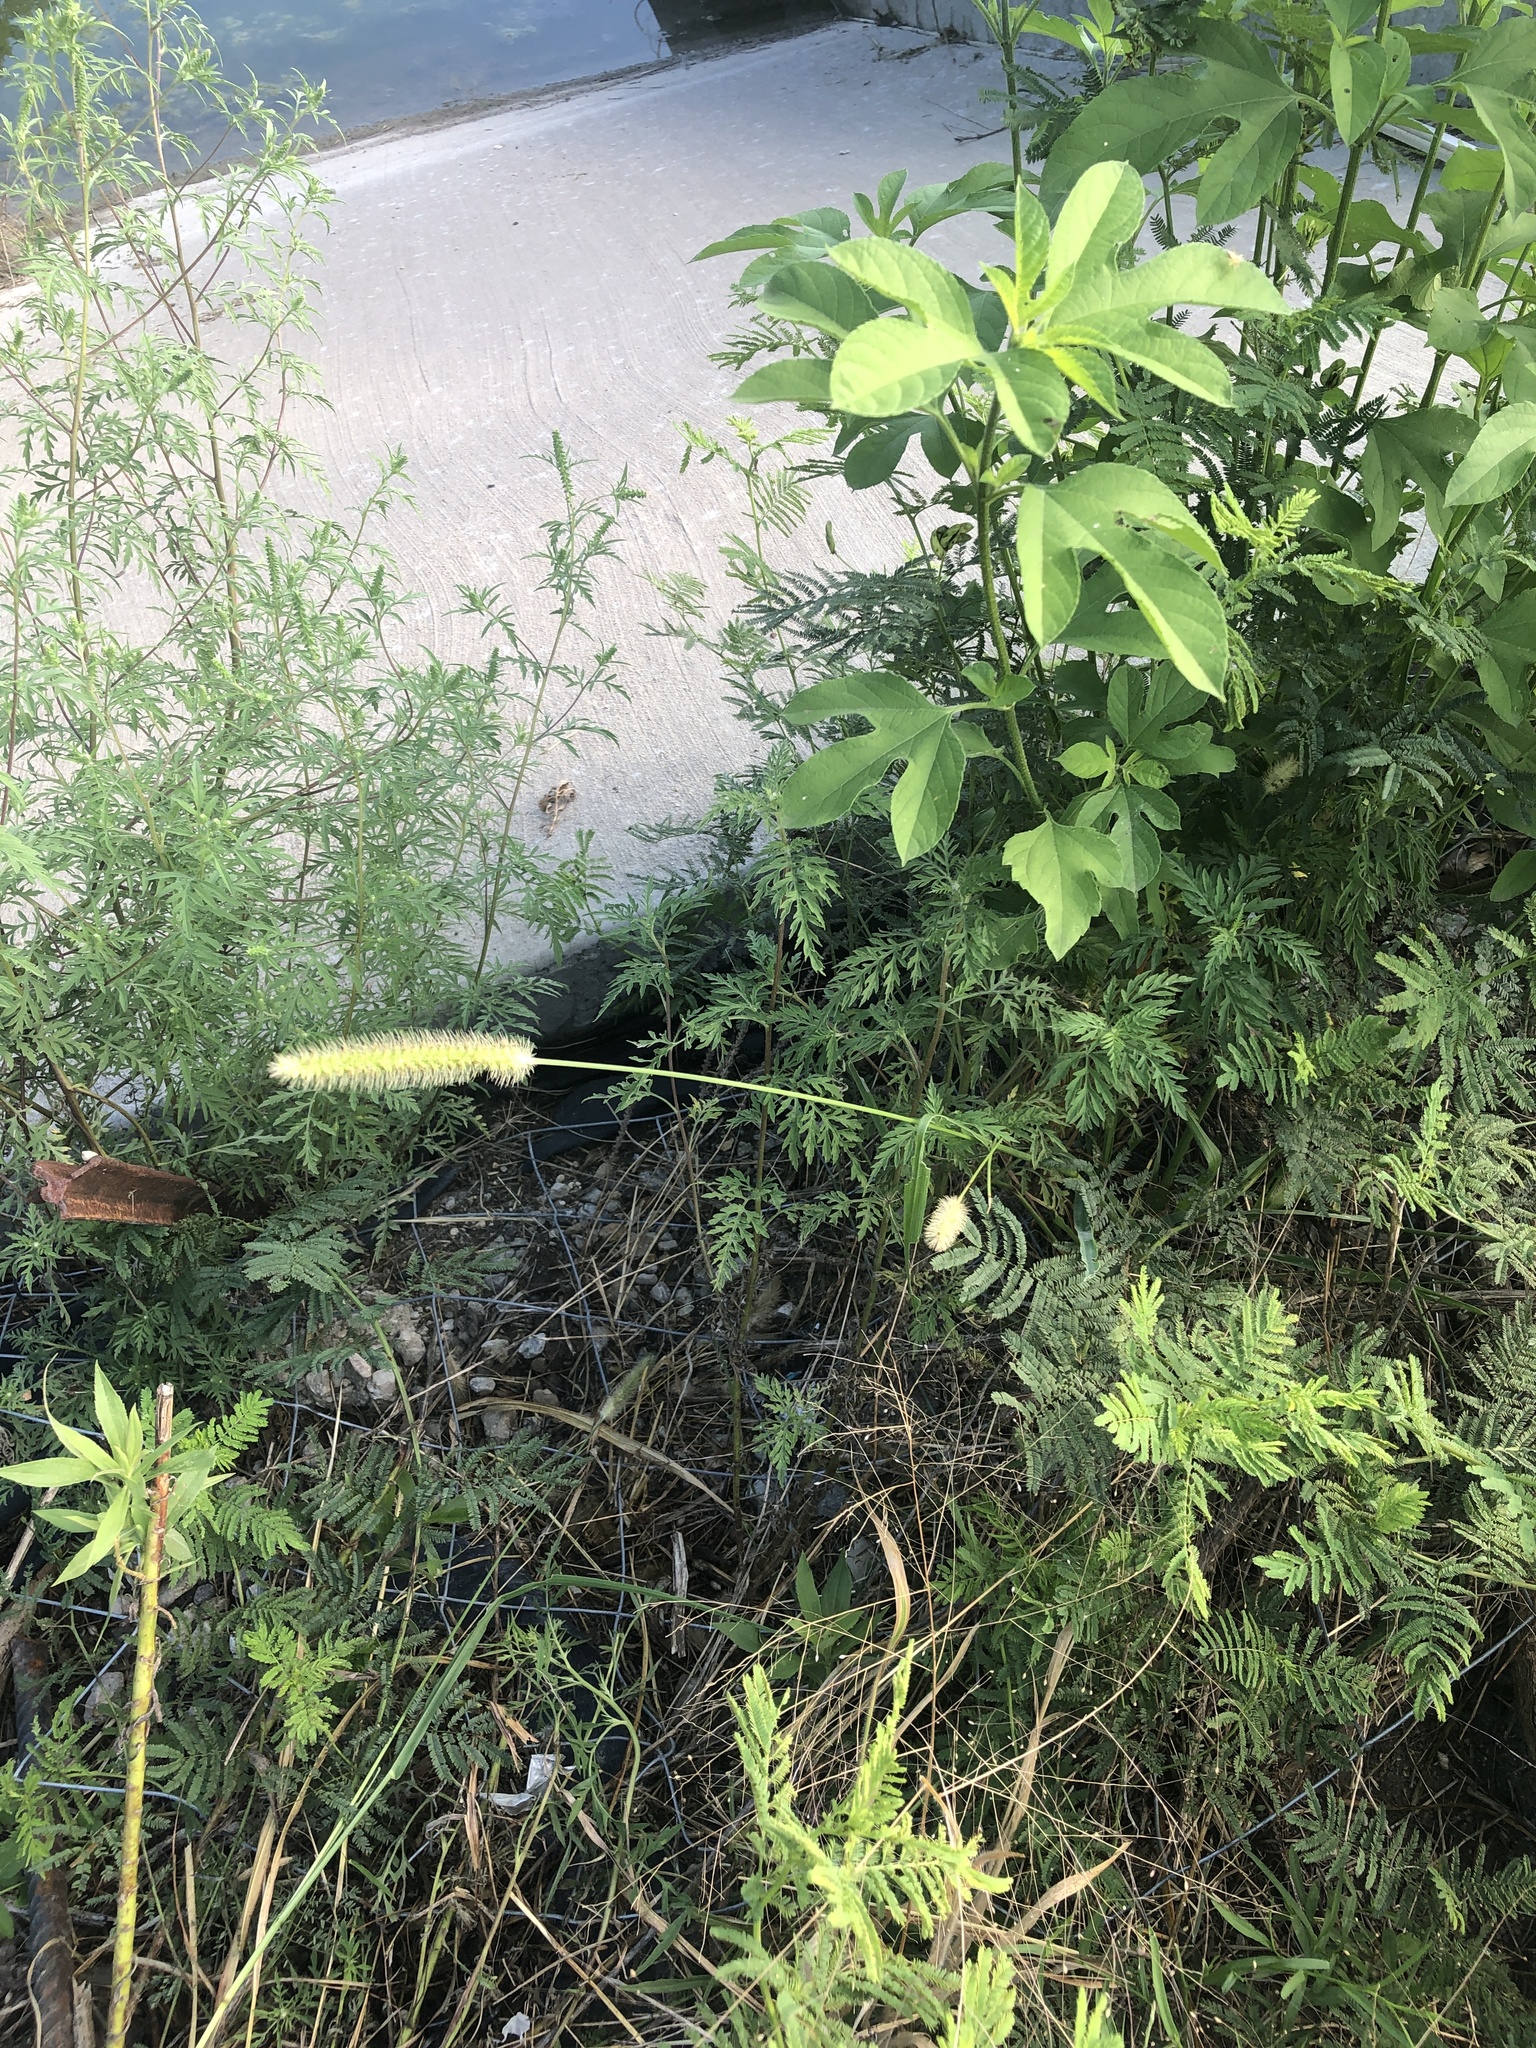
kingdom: Plantae
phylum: Tracheophyta
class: Liliopsida
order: Poales
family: Poaceae
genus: Setaria
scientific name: Setaria parviflora
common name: Knotroot bristle-grass
